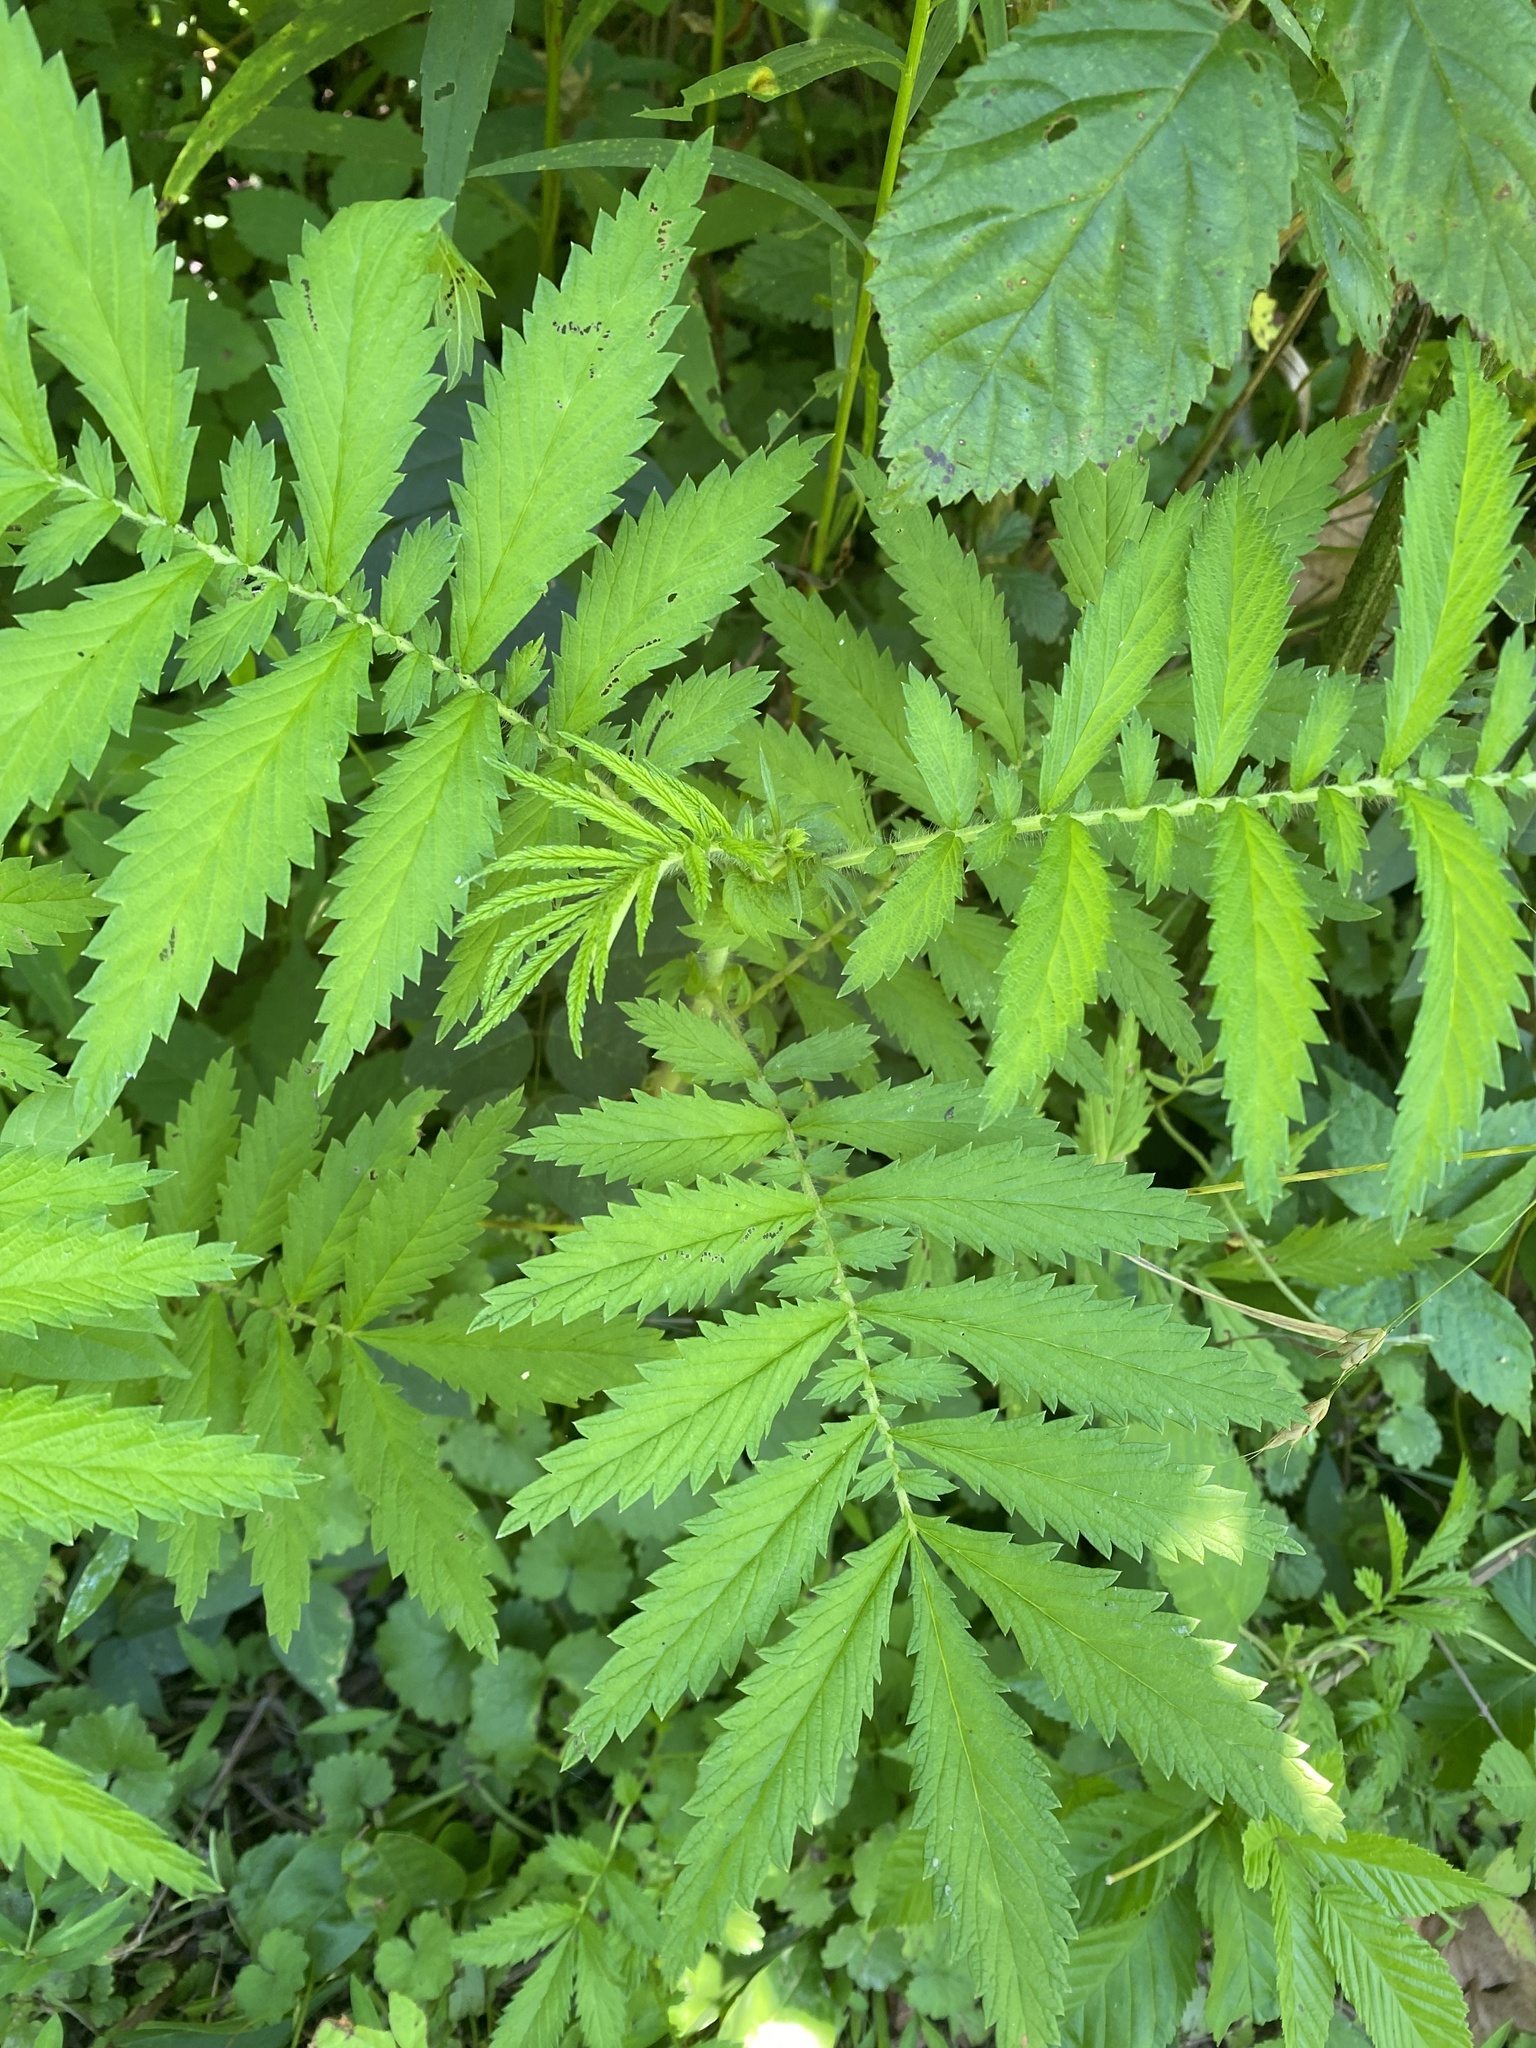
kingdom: Plantae
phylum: Tracheophyta
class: Magnoliopsida
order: Rosales
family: Rosaceae
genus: Agrimonia
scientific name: Agrimonia parviflora
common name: Harvest-lice
